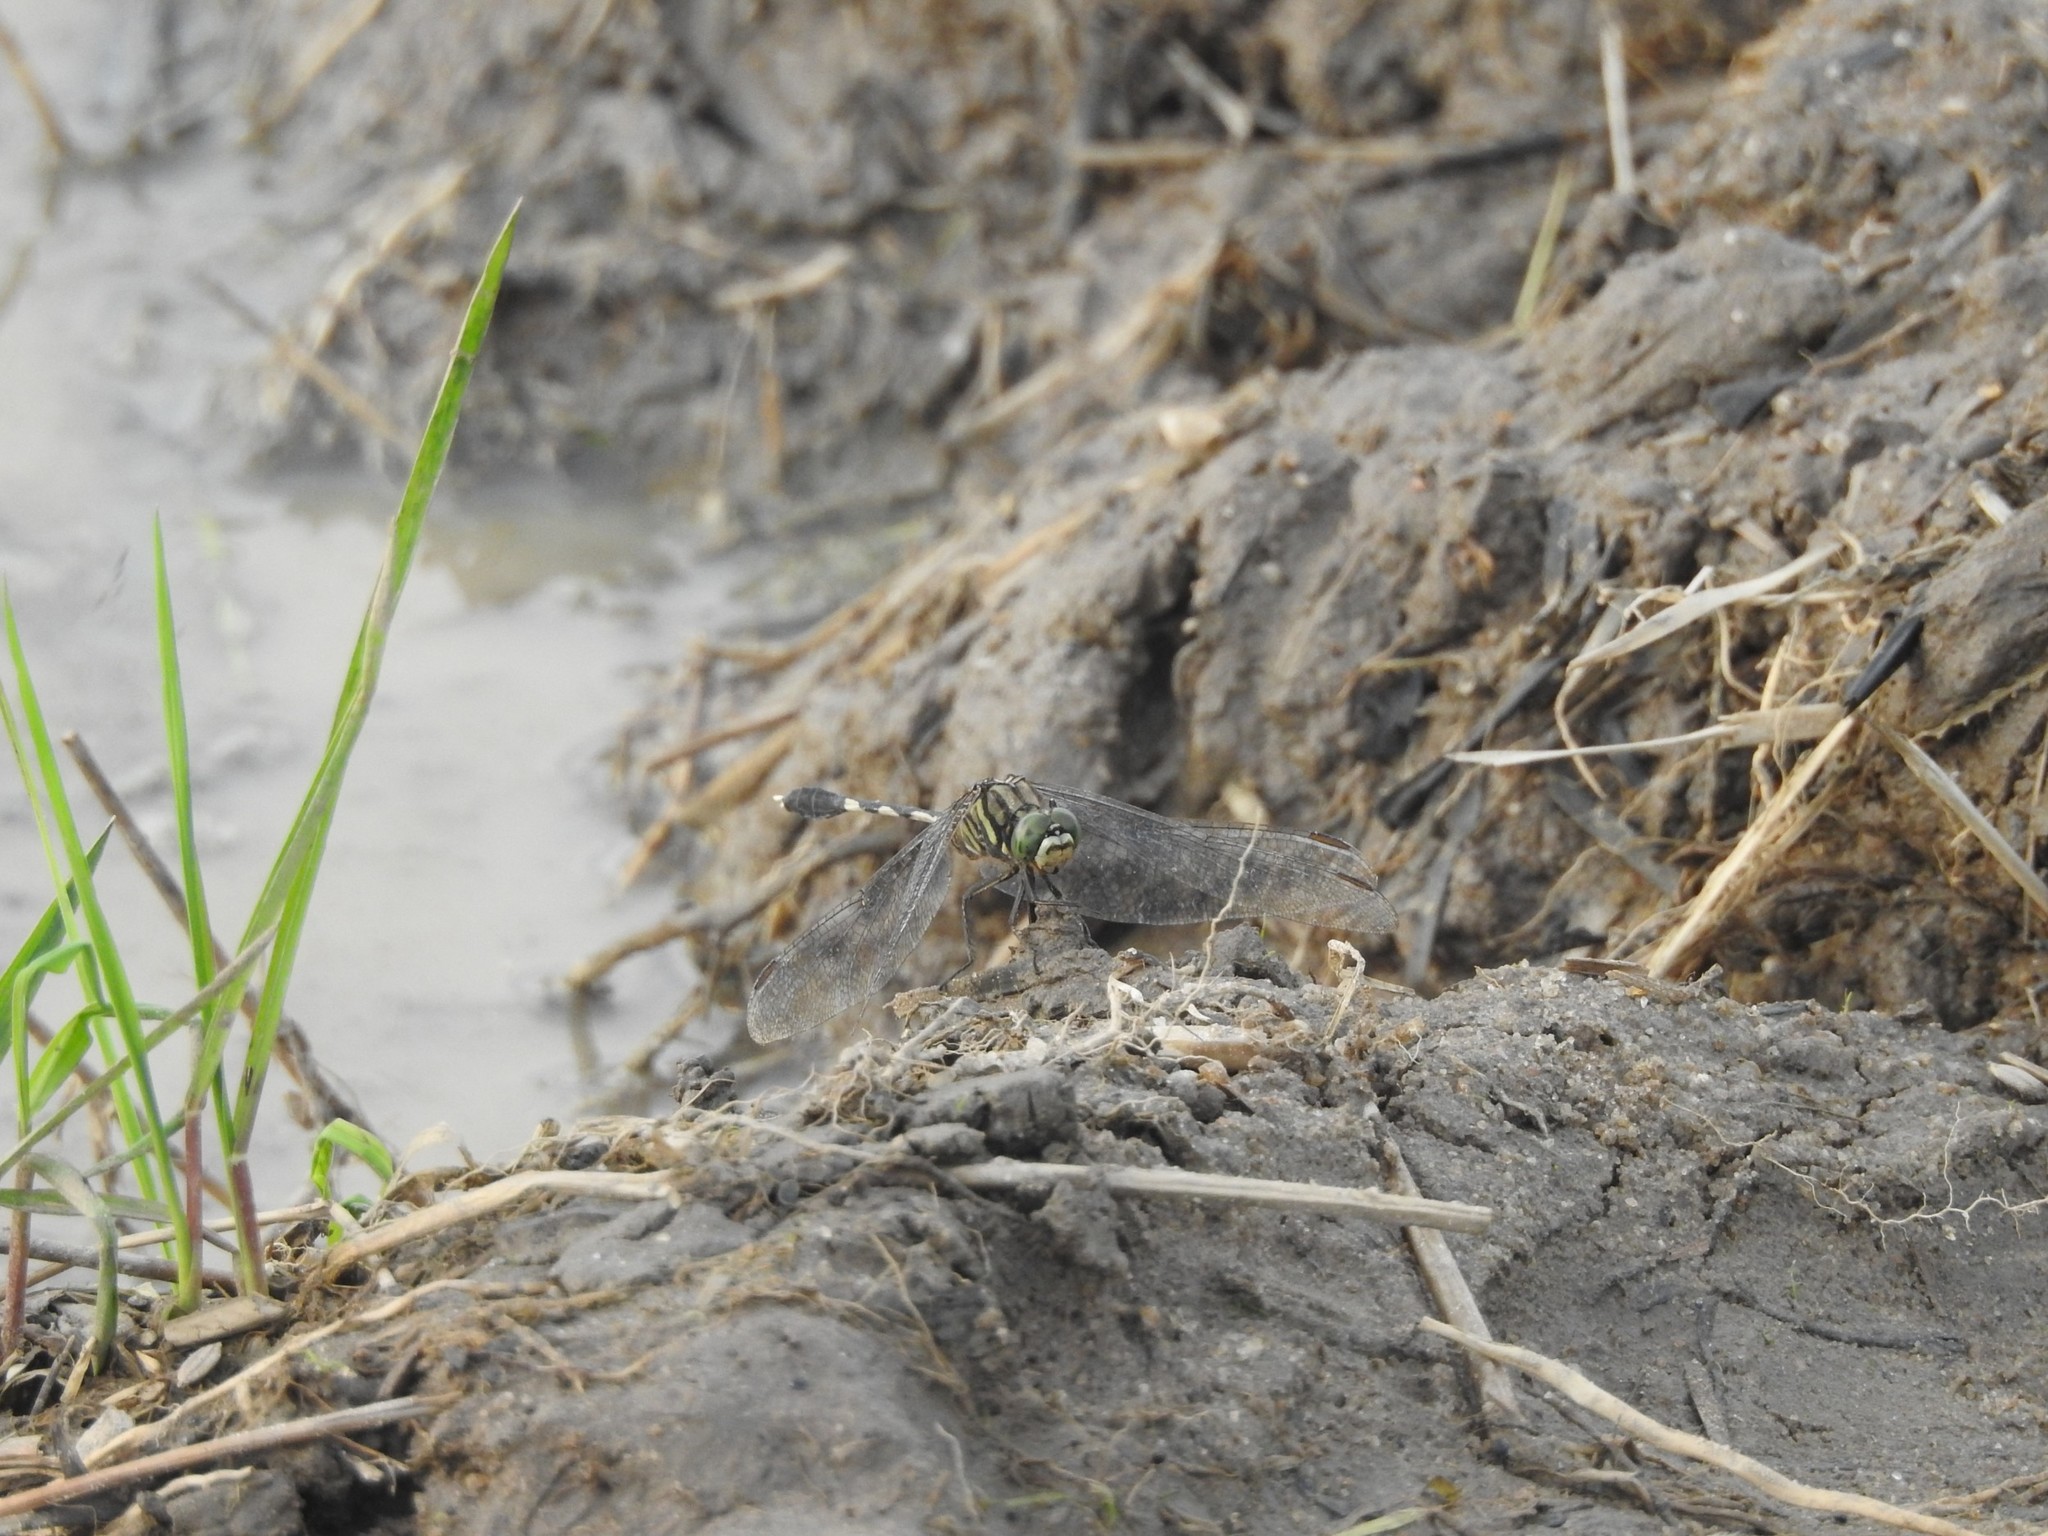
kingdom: Animalia
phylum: Arthropoda
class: Insecta
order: Odonata
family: Libellulidae
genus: Orthetrum
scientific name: Orthetrum sabina
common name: Slender skimmer
